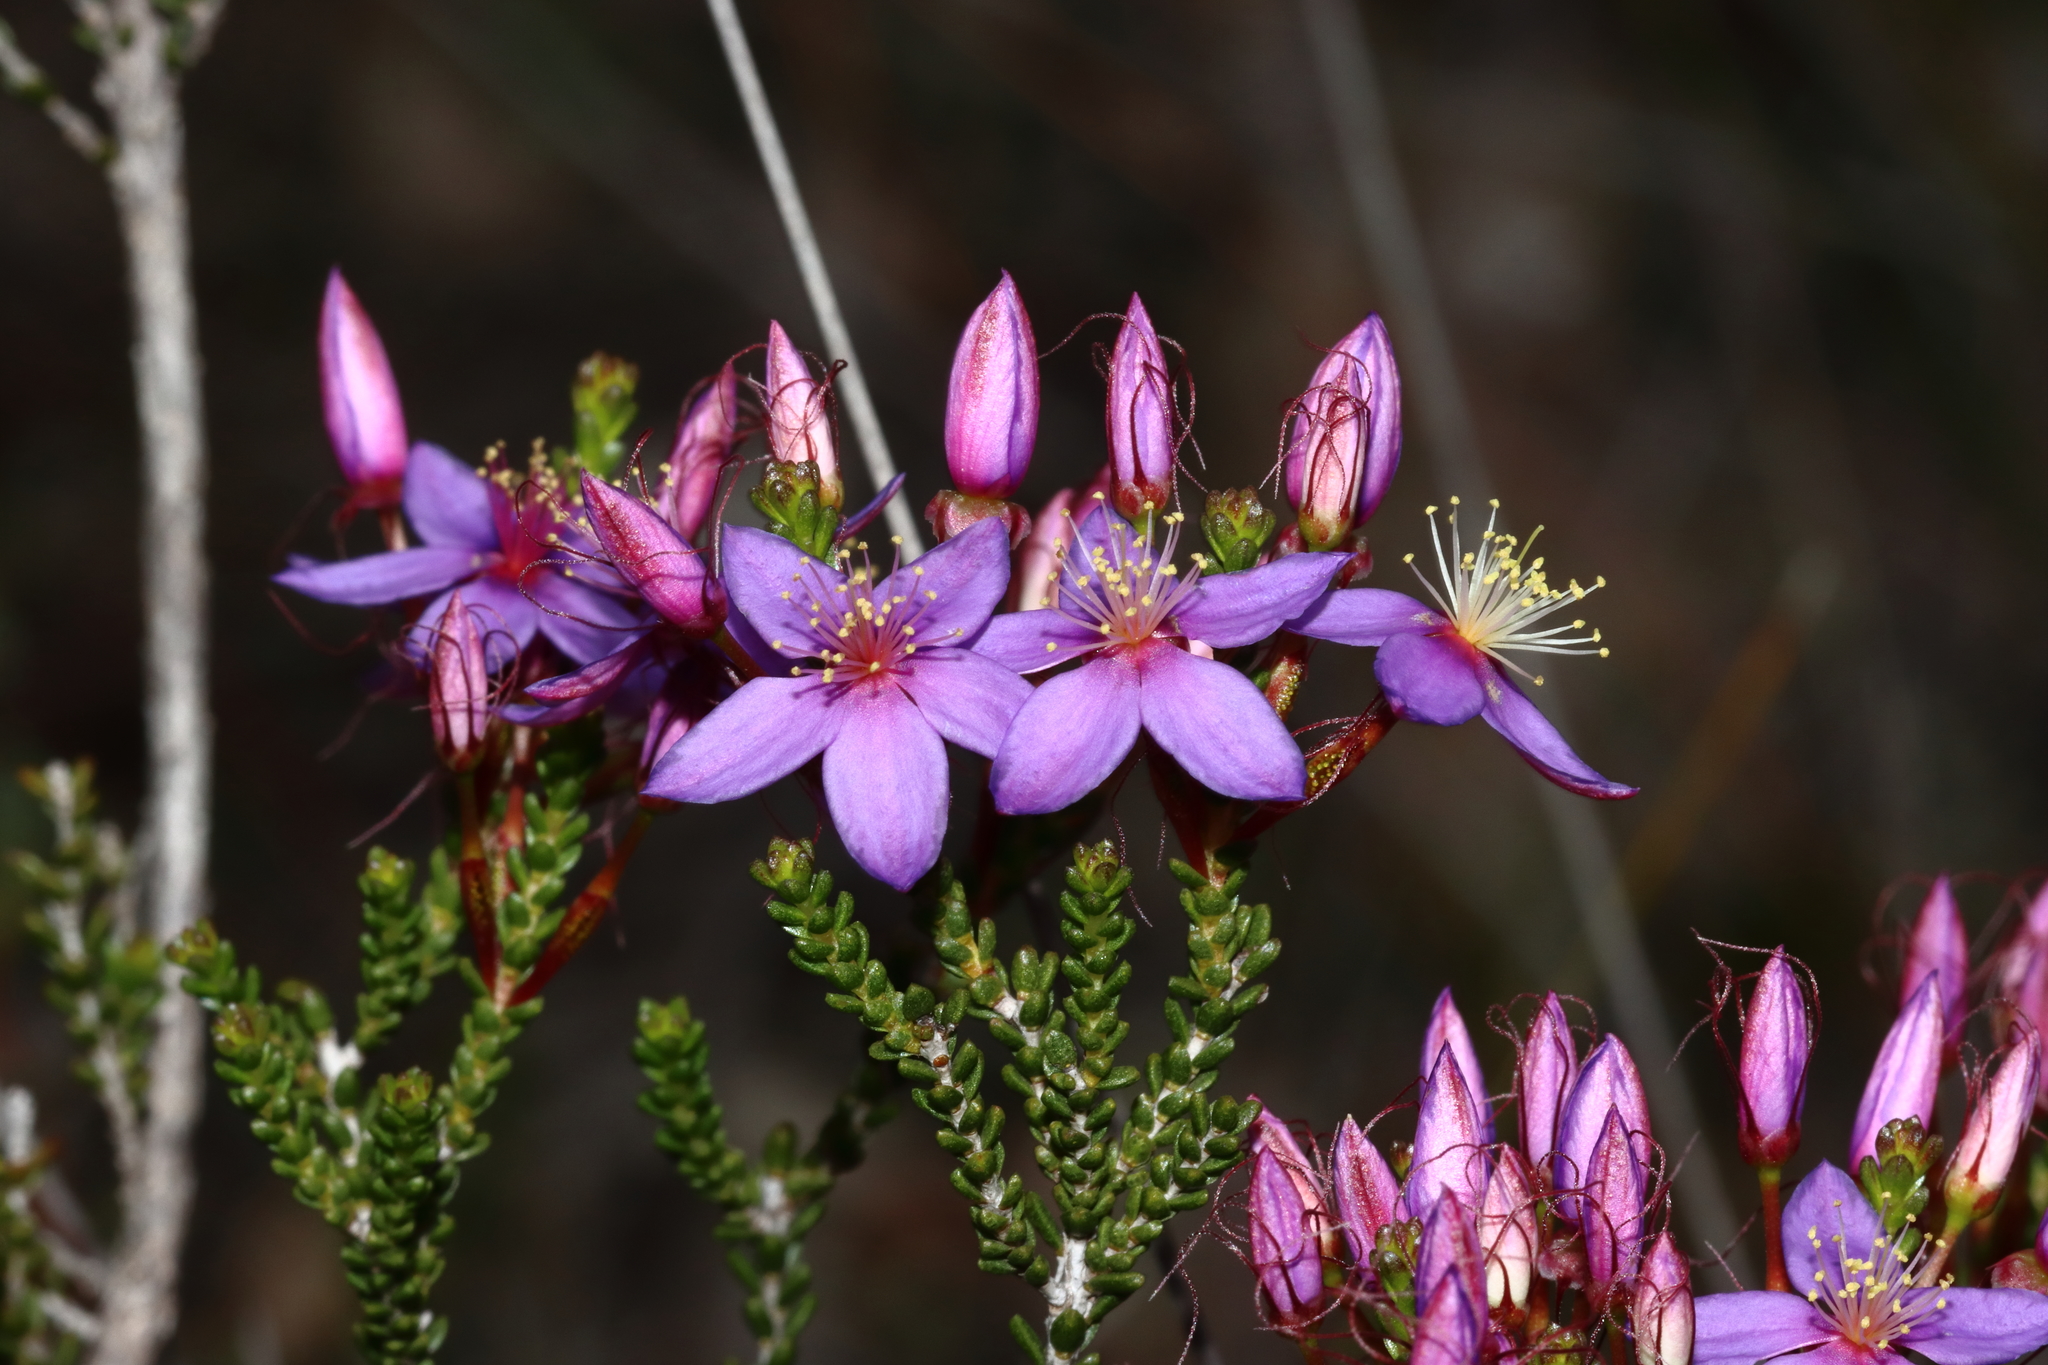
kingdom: Plantae
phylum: Tracheophyta
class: Magnoliopsida
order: Myrtales
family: Myrtaceae
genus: Calytrix
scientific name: Calytrix leschenaultii
